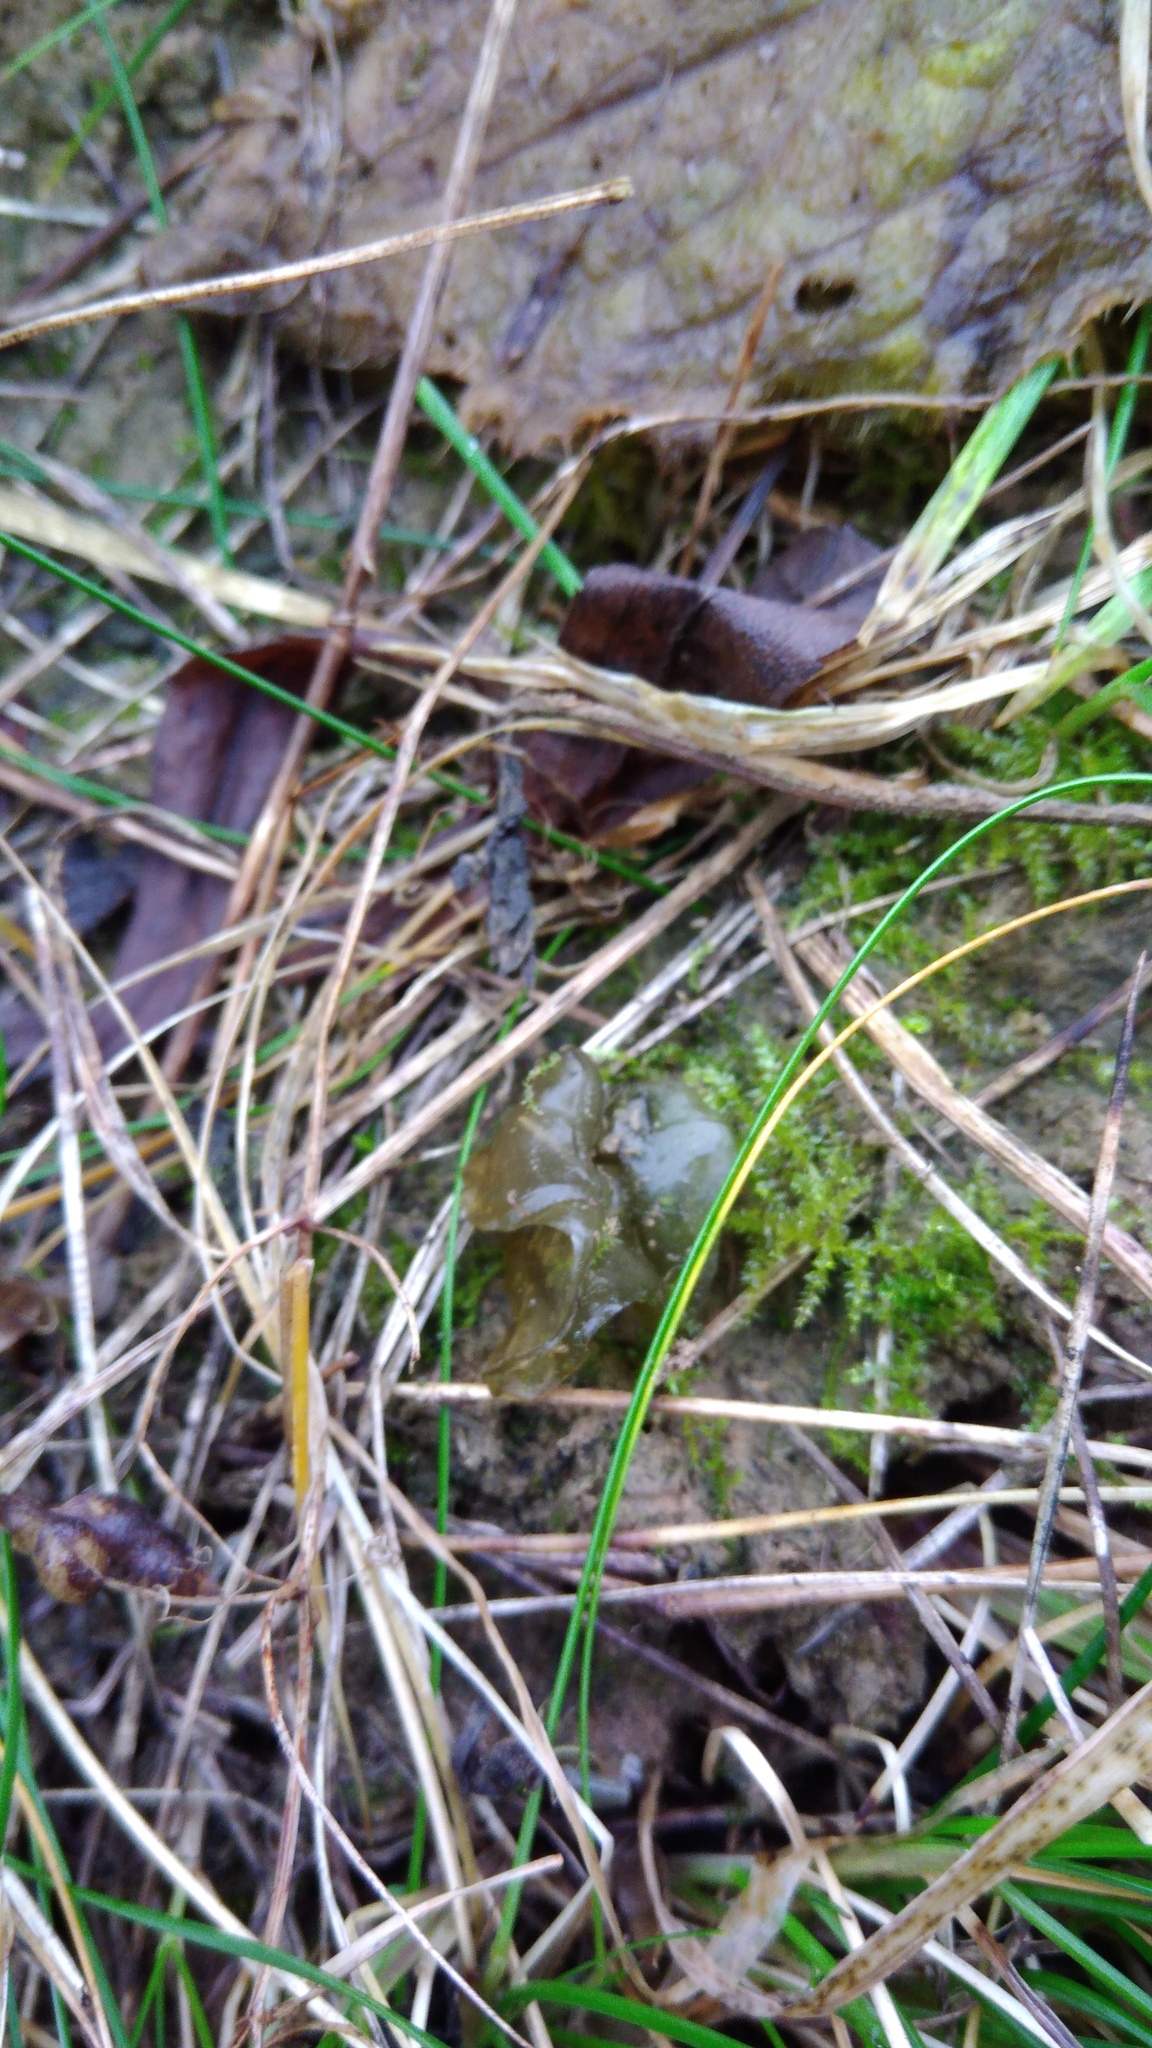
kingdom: Bacteria
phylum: Cyanobacteria
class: Cyanobacteriia
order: Cyanobacteriales
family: Nostocaceae
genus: Nostoc
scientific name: Nostoc commune
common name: Star jelly
